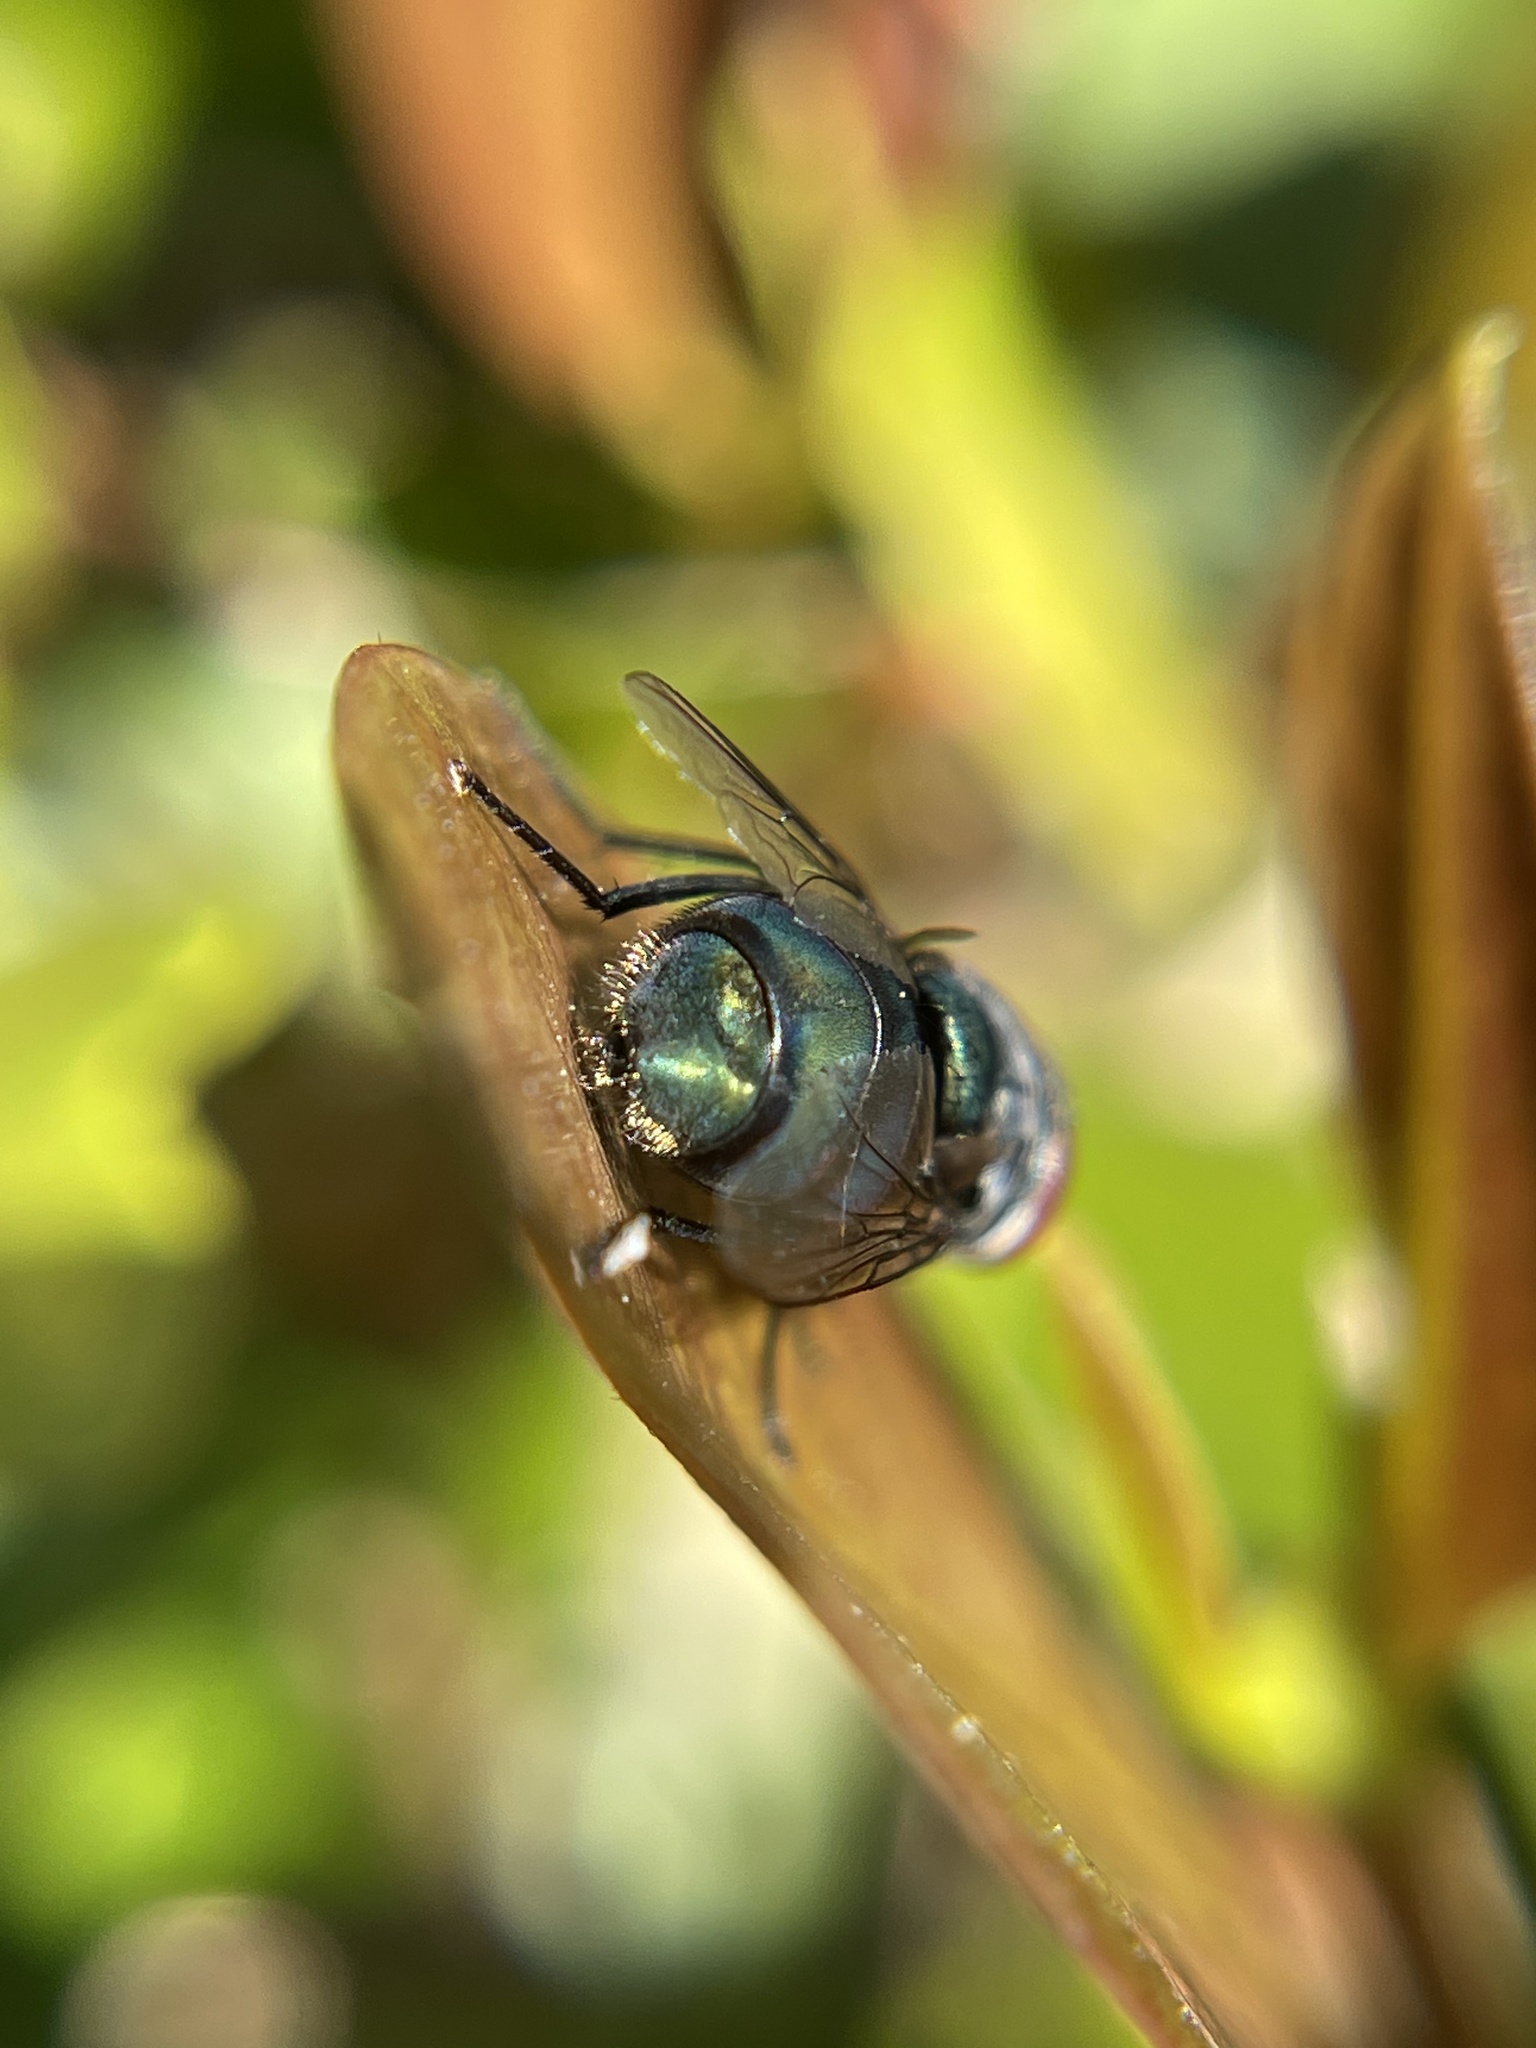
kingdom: Animalia
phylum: Arthropoda
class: Insecta
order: Diptera
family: Calliphoridae
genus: Chrysomya
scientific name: Chrysomya megacephala
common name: Blow fly
